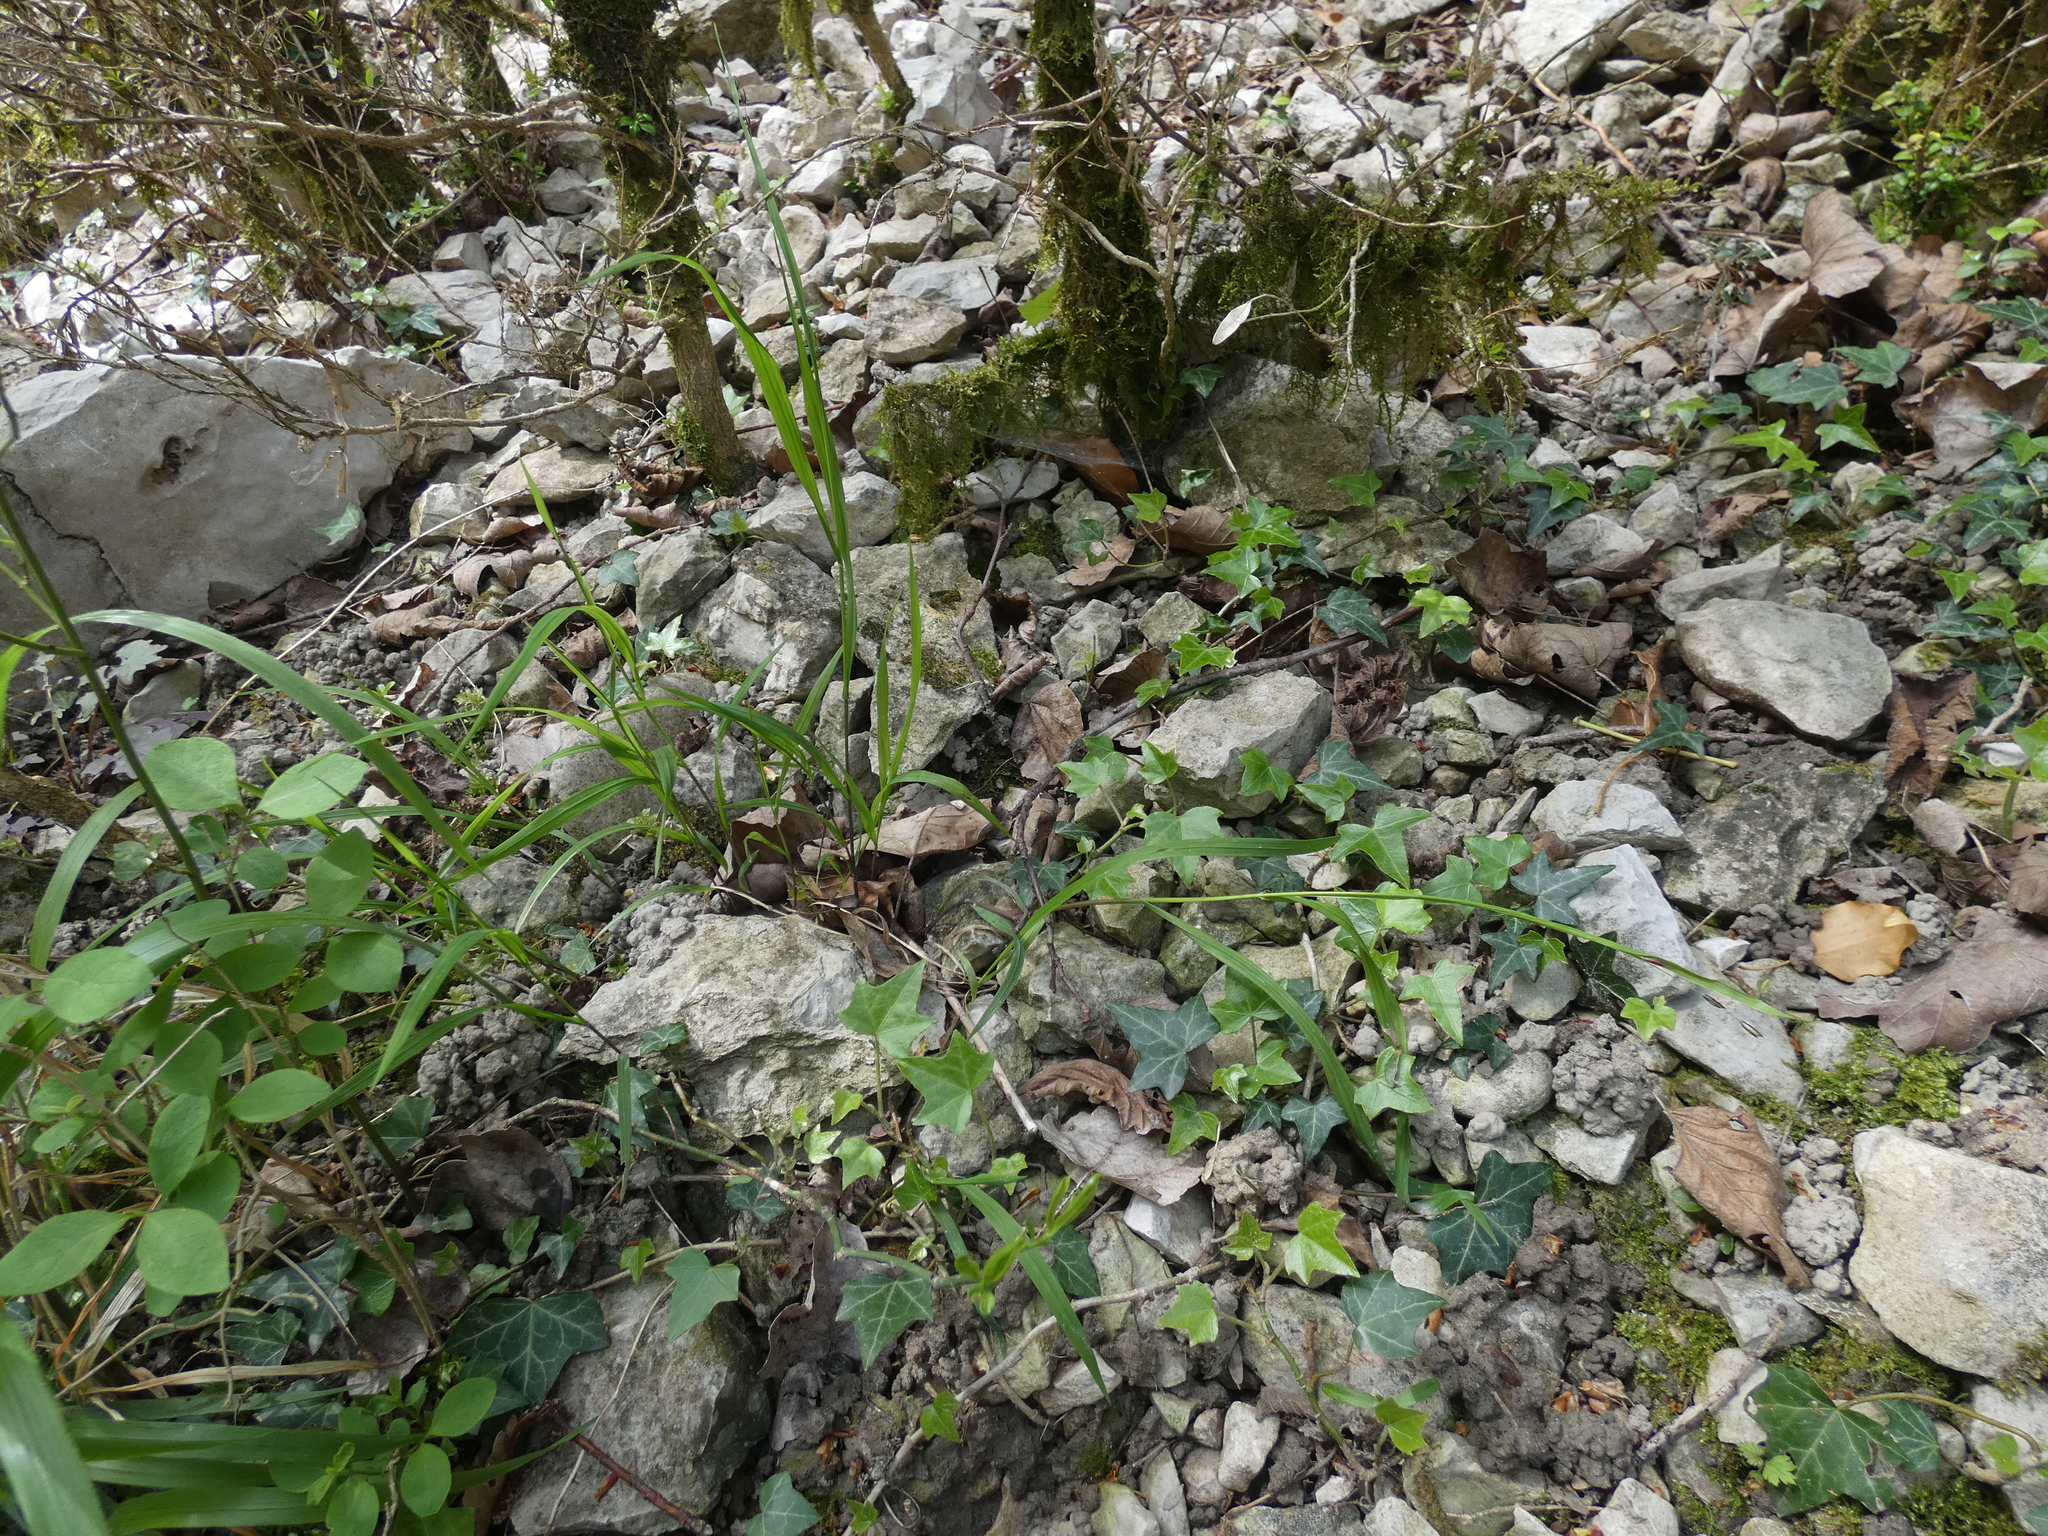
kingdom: Plantae
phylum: Tracheophyta
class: Liliopsida
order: Poales
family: Poaceae
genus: Melica
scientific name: Melica uniflora
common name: Wood melick
